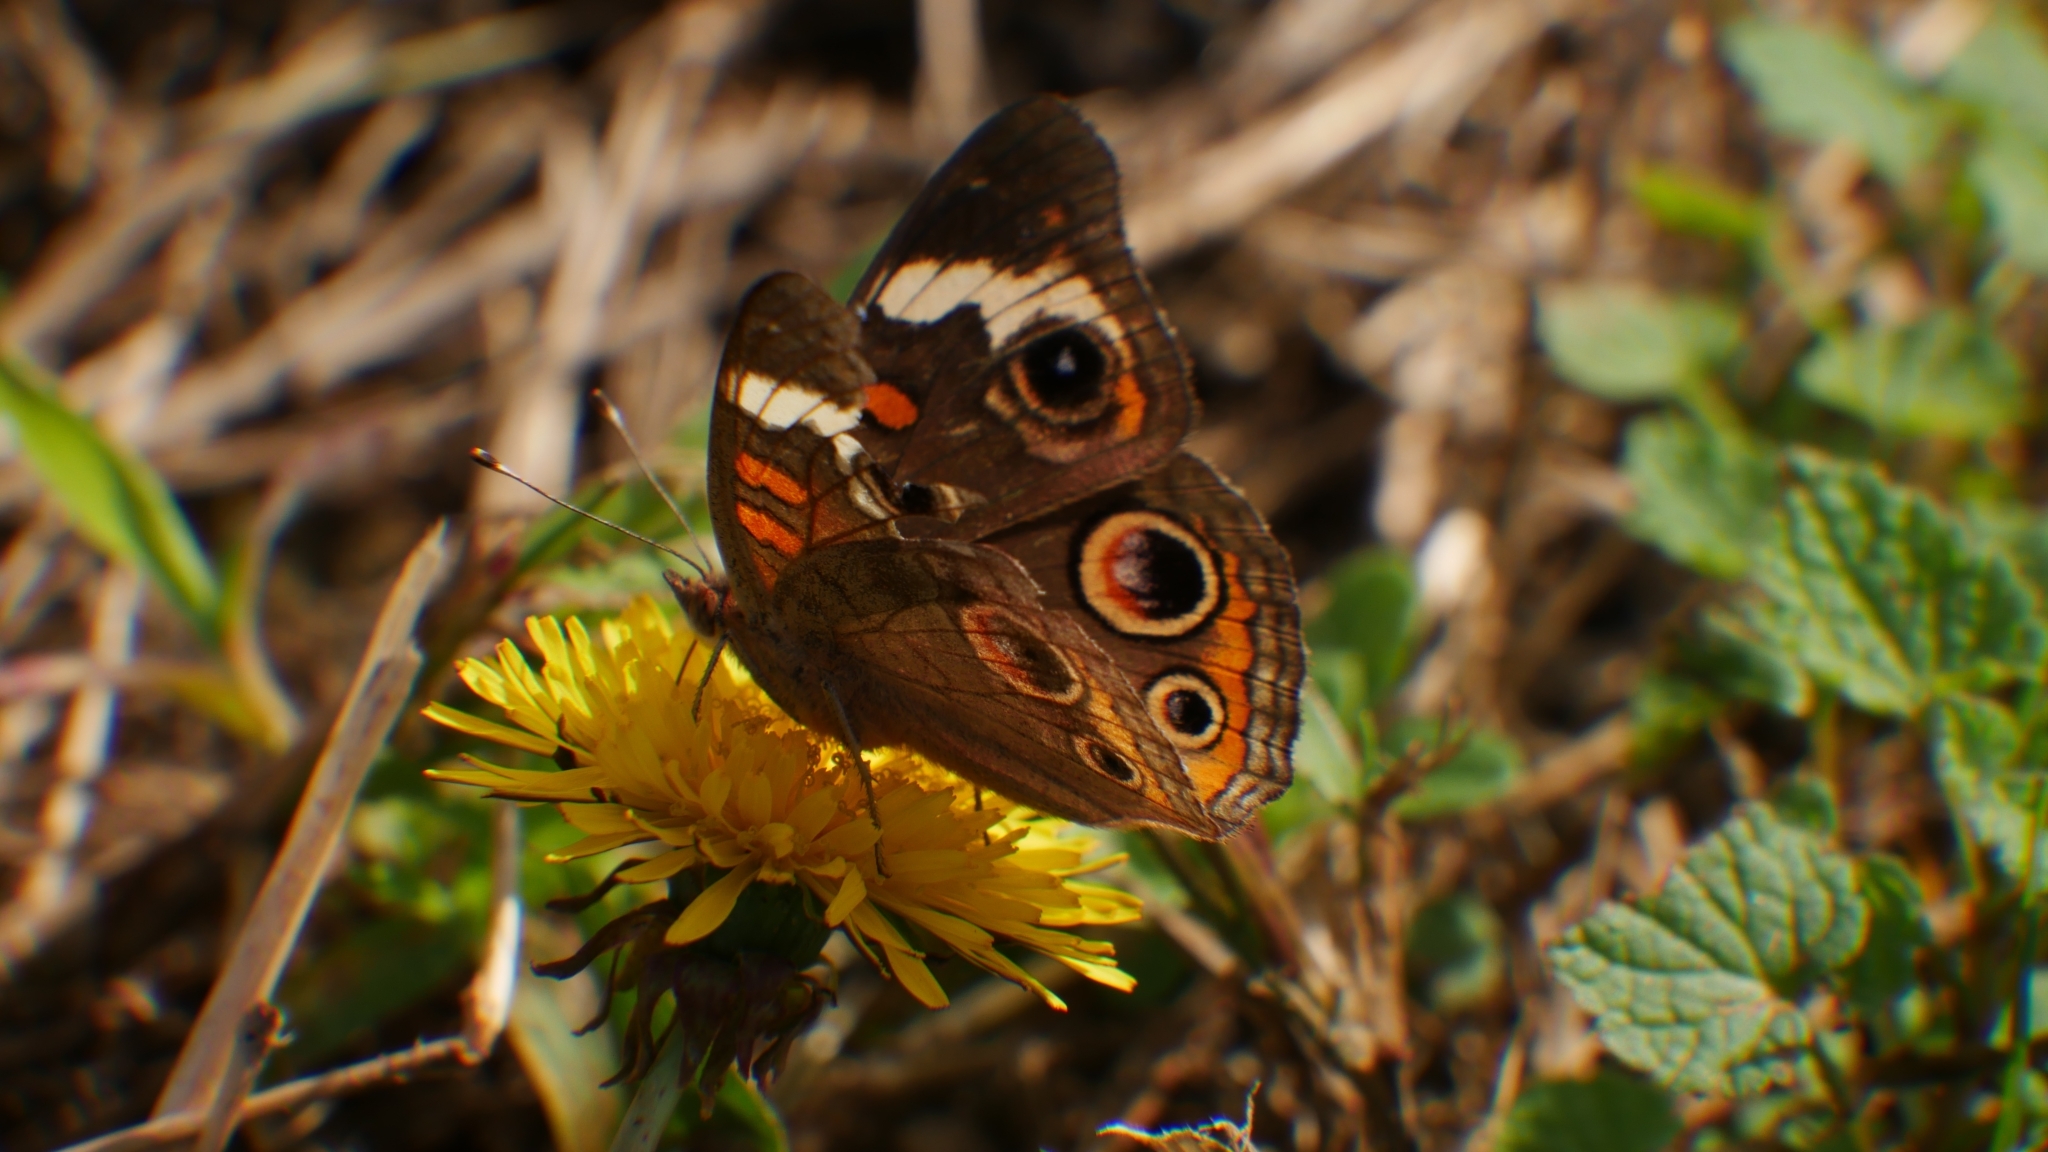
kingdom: Animalia
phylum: Arthropoda
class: Insecta
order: Lepidoptera
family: Nymphalidae
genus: Junonia
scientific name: Junonia coenia
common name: Common buckeye
